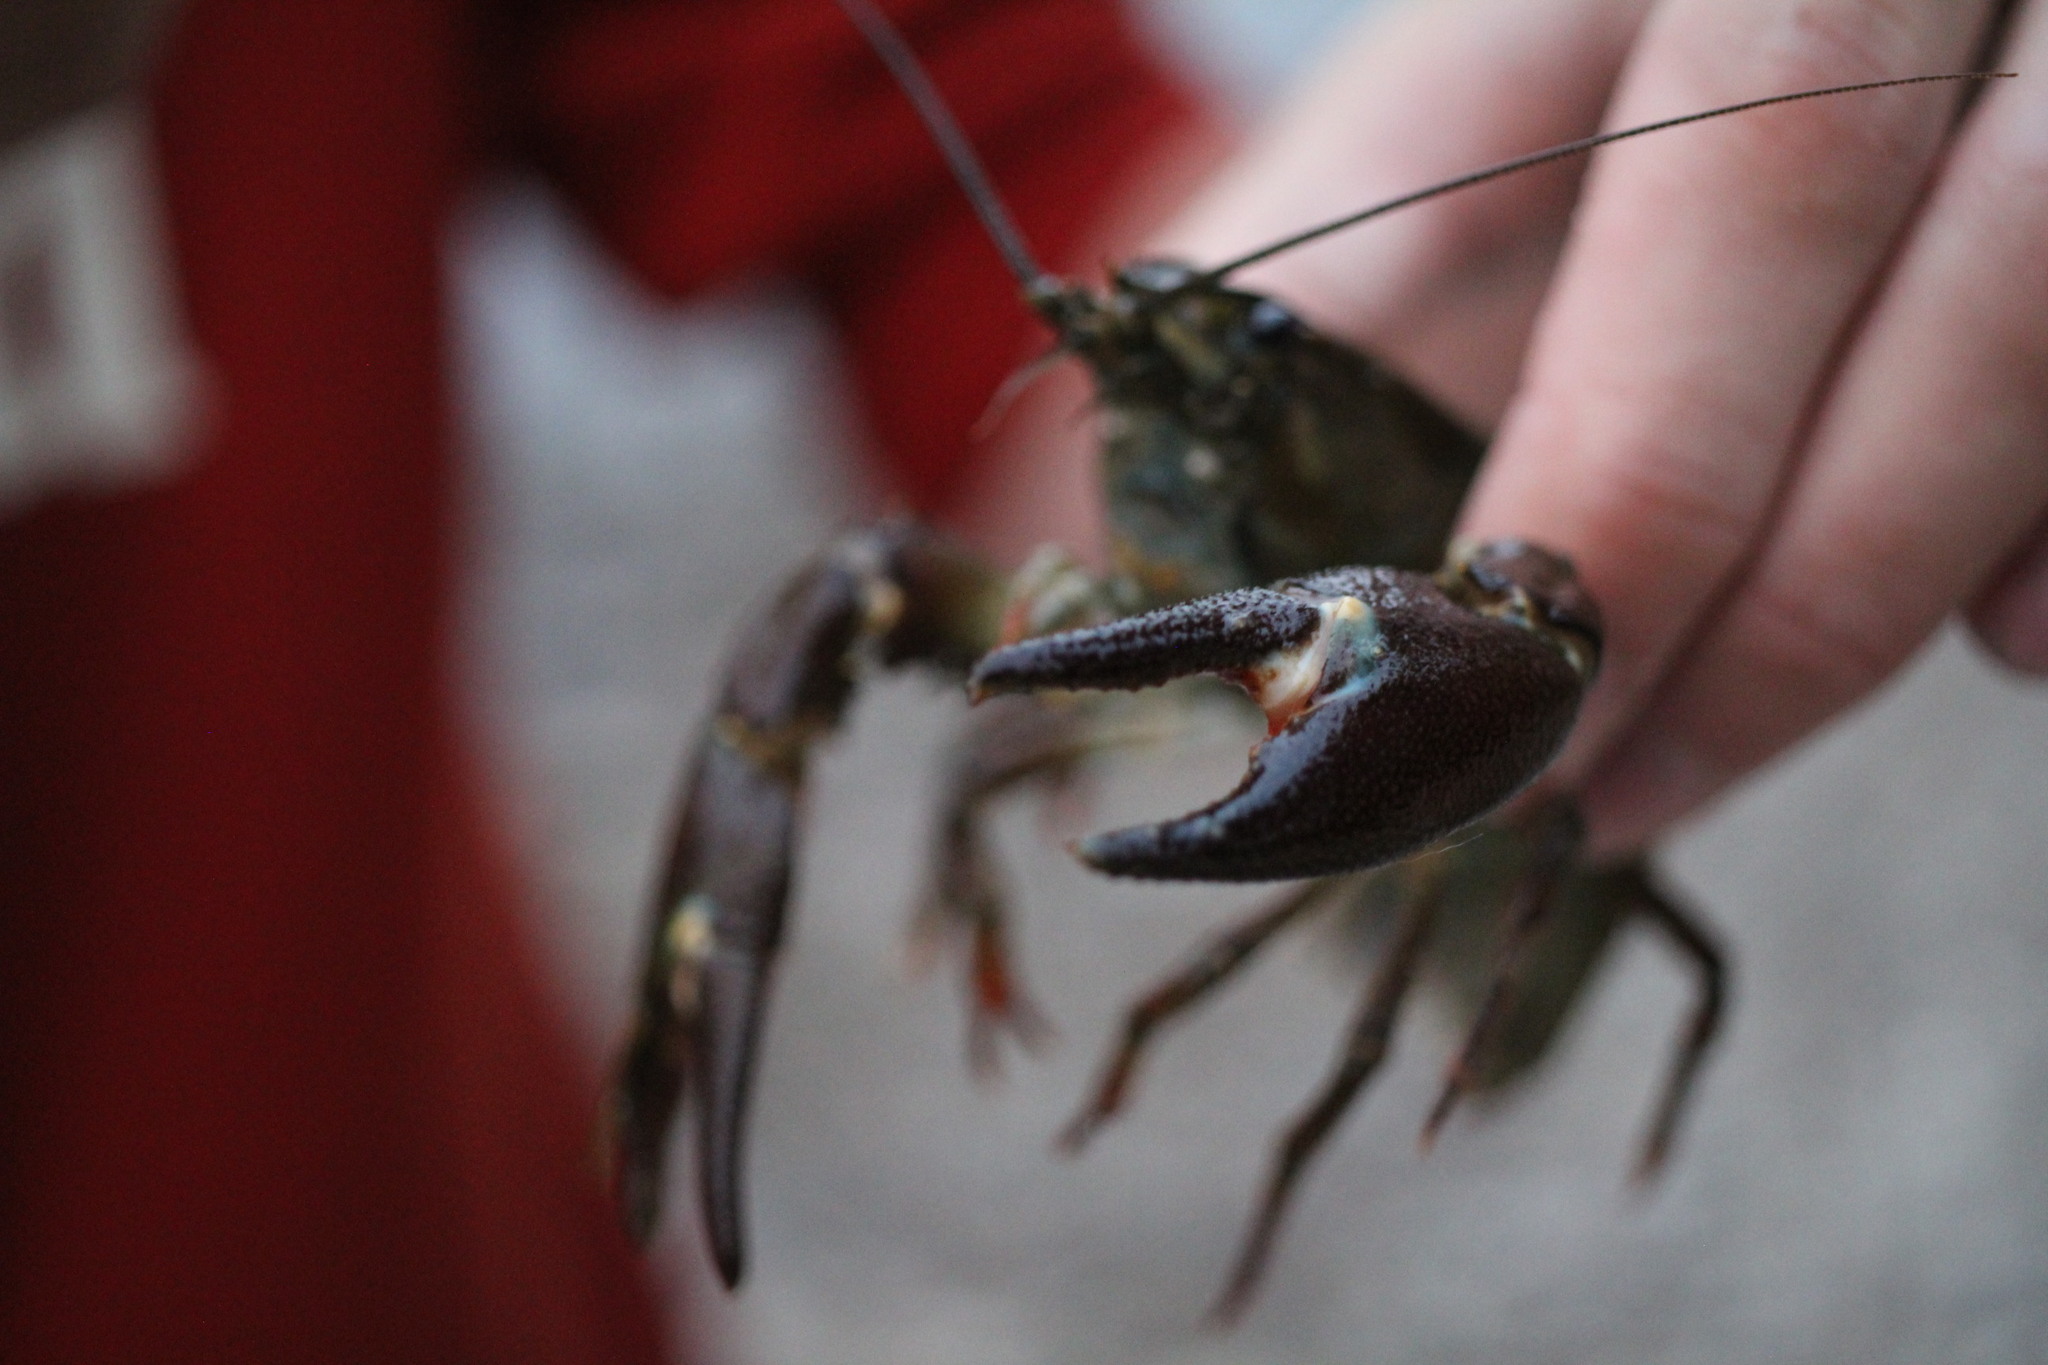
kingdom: Animalia
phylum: Arthropoda
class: Malacostraca
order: Decapoda
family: Astacidae
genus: Pacifastacus
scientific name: Pacifastacus leniusculus
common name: Signal crayfish
